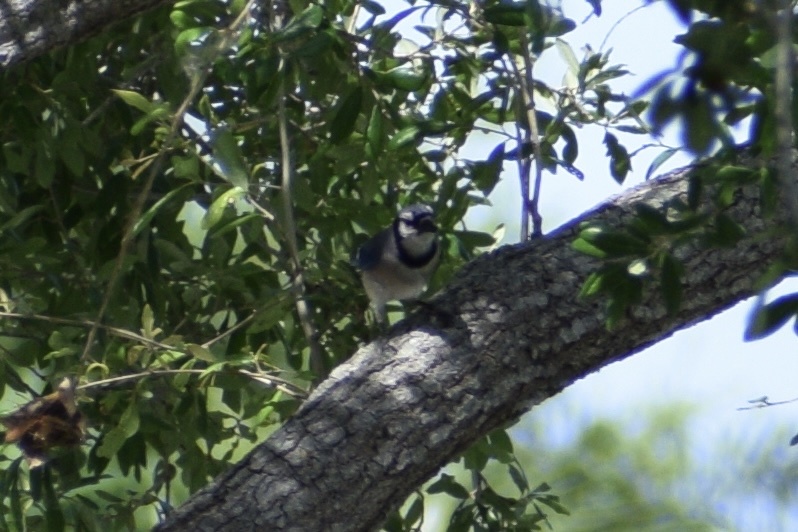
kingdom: Animalia
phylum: Chordata
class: Aves
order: Passeriformes
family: Corvidae
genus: Cyanocitta
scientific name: Cyanocitta cristata
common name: Blue jay
